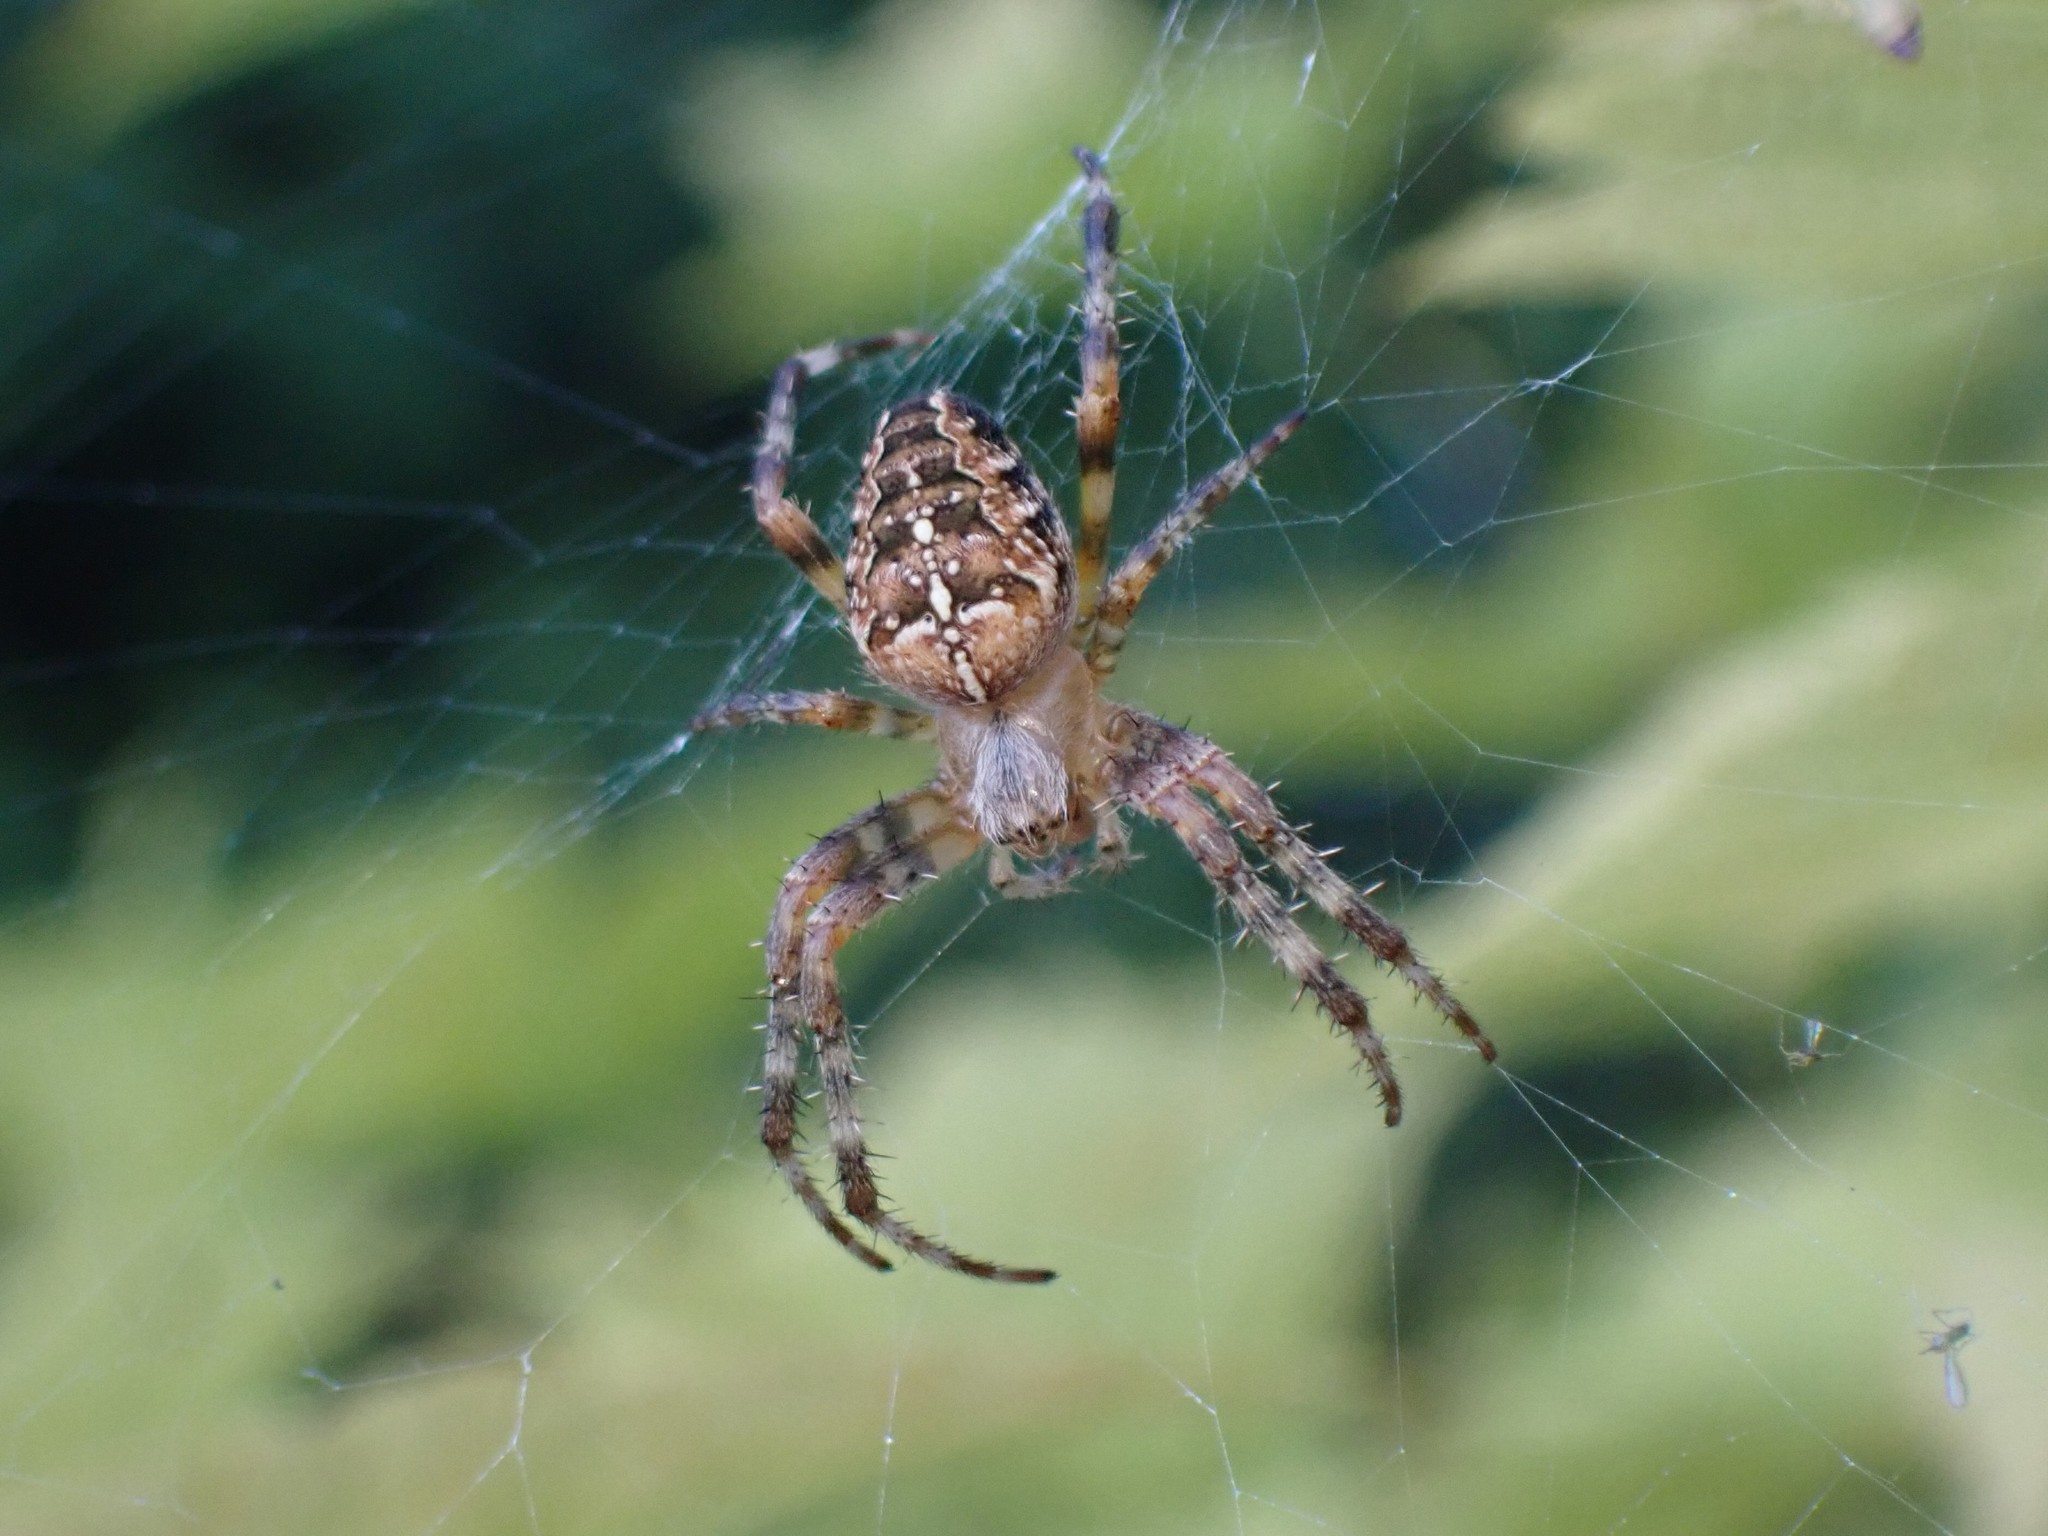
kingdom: Animalia
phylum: Arthropoda
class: Arachnida
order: Araneae
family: Araneidae
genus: Araneus
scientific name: Araneus diadematus
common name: Cross orbweaver
